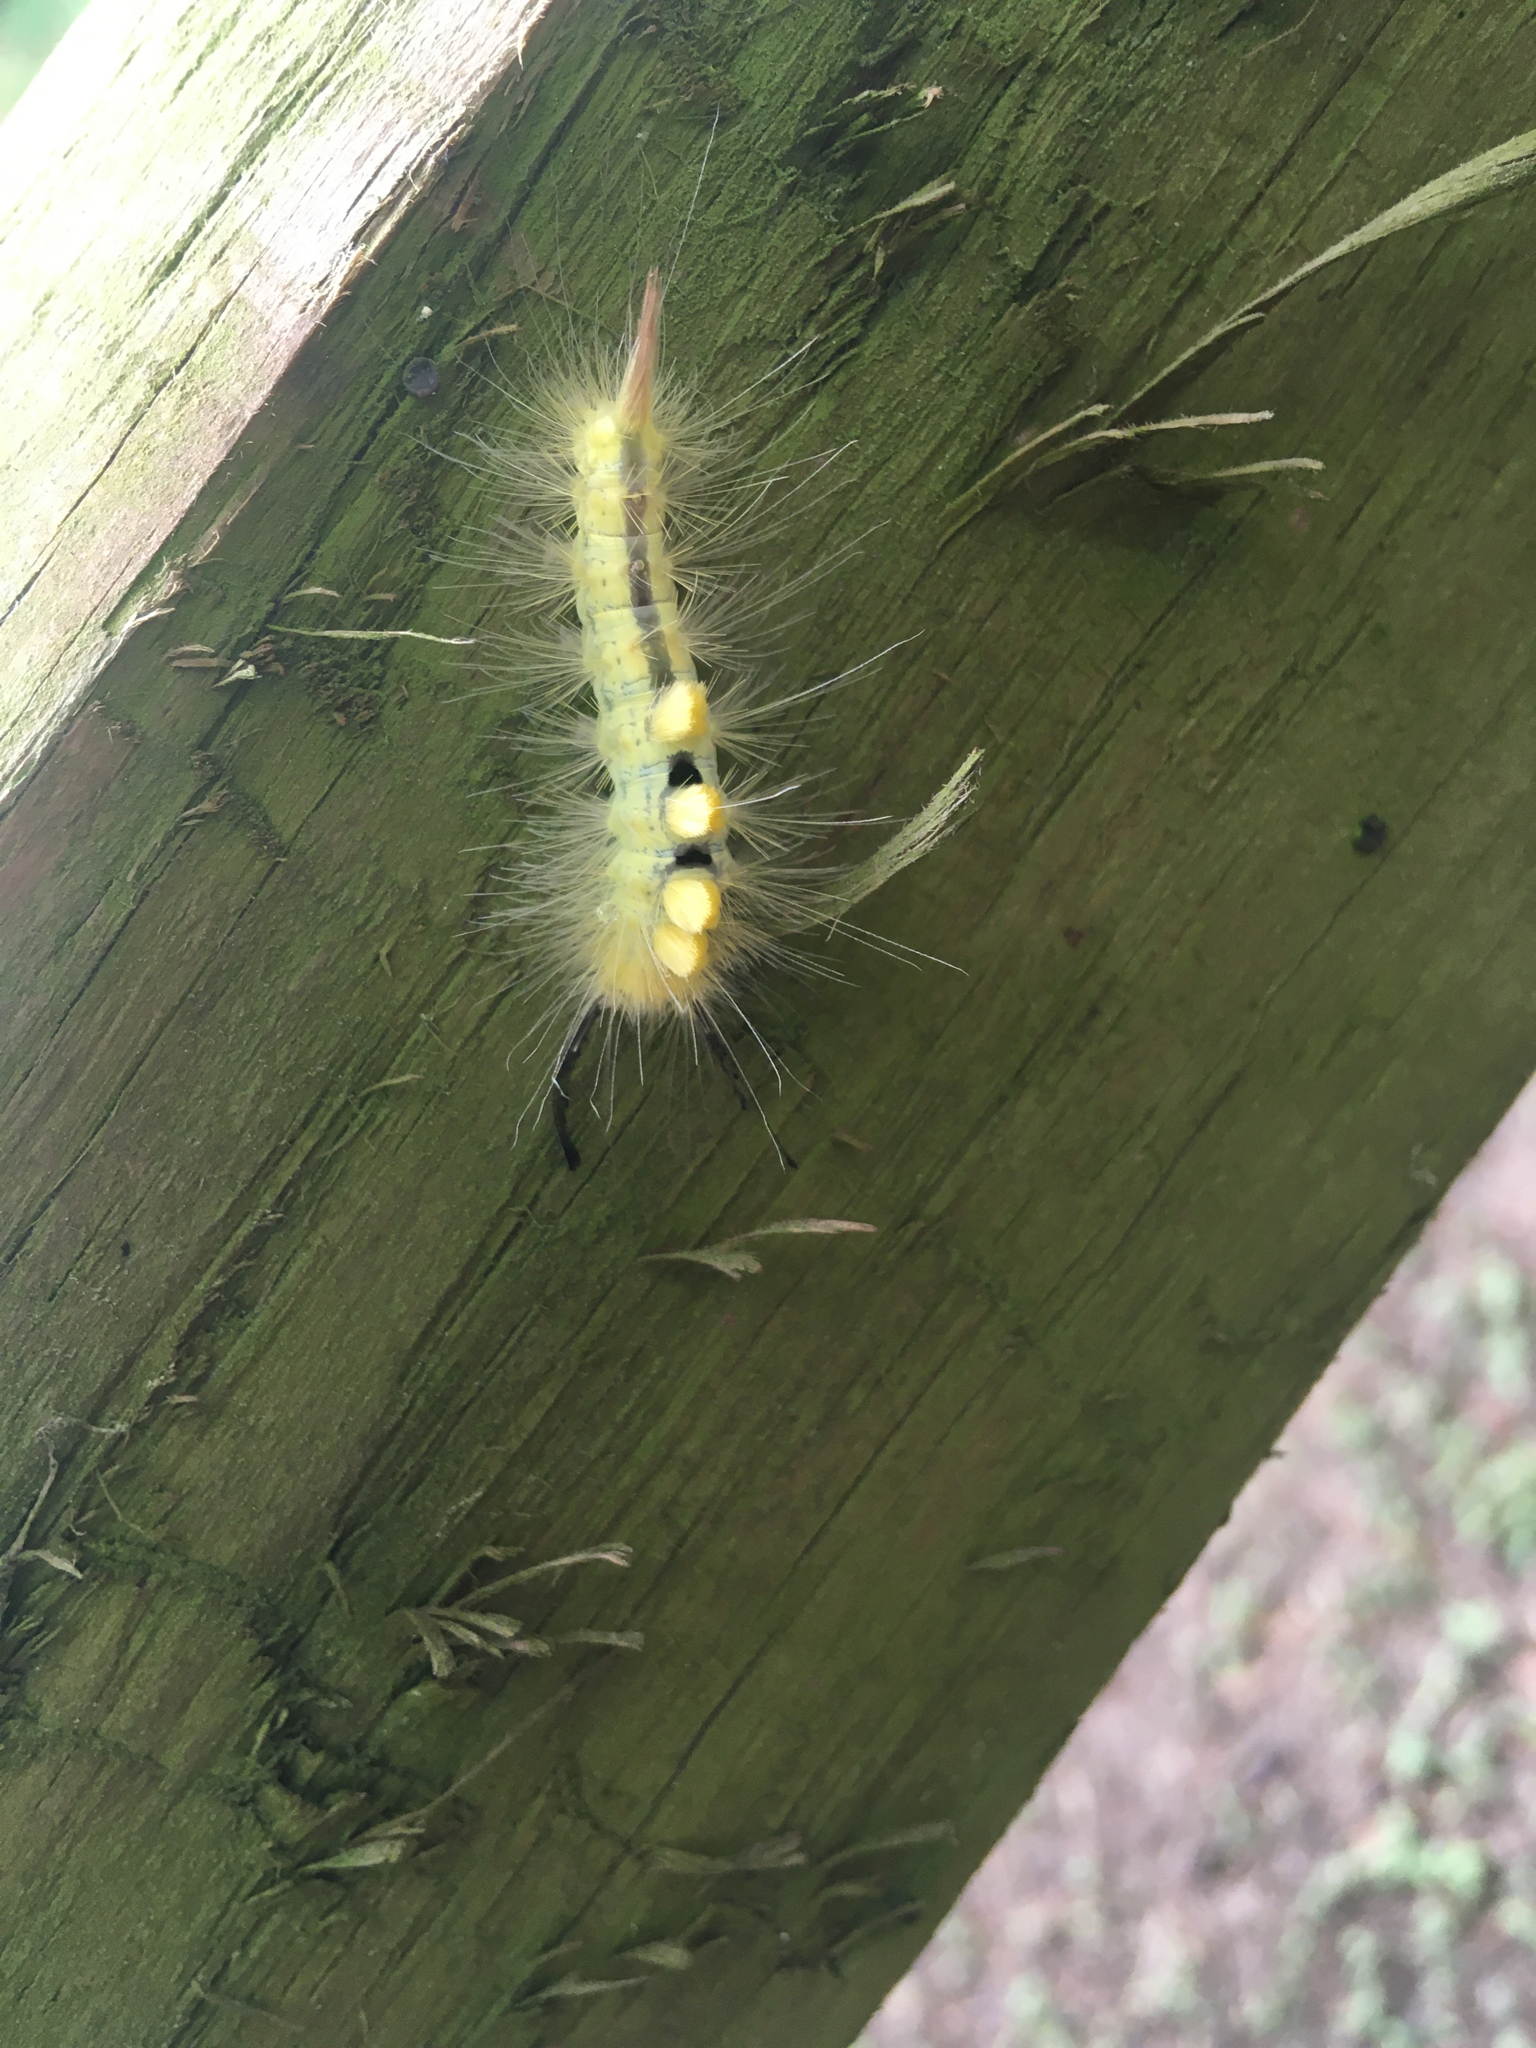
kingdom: Animalia
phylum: Arthropoda
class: Insecta
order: Lepidoptera
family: Erebidae
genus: Orgyia
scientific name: Orgyia definita
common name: Definite tussock moth
